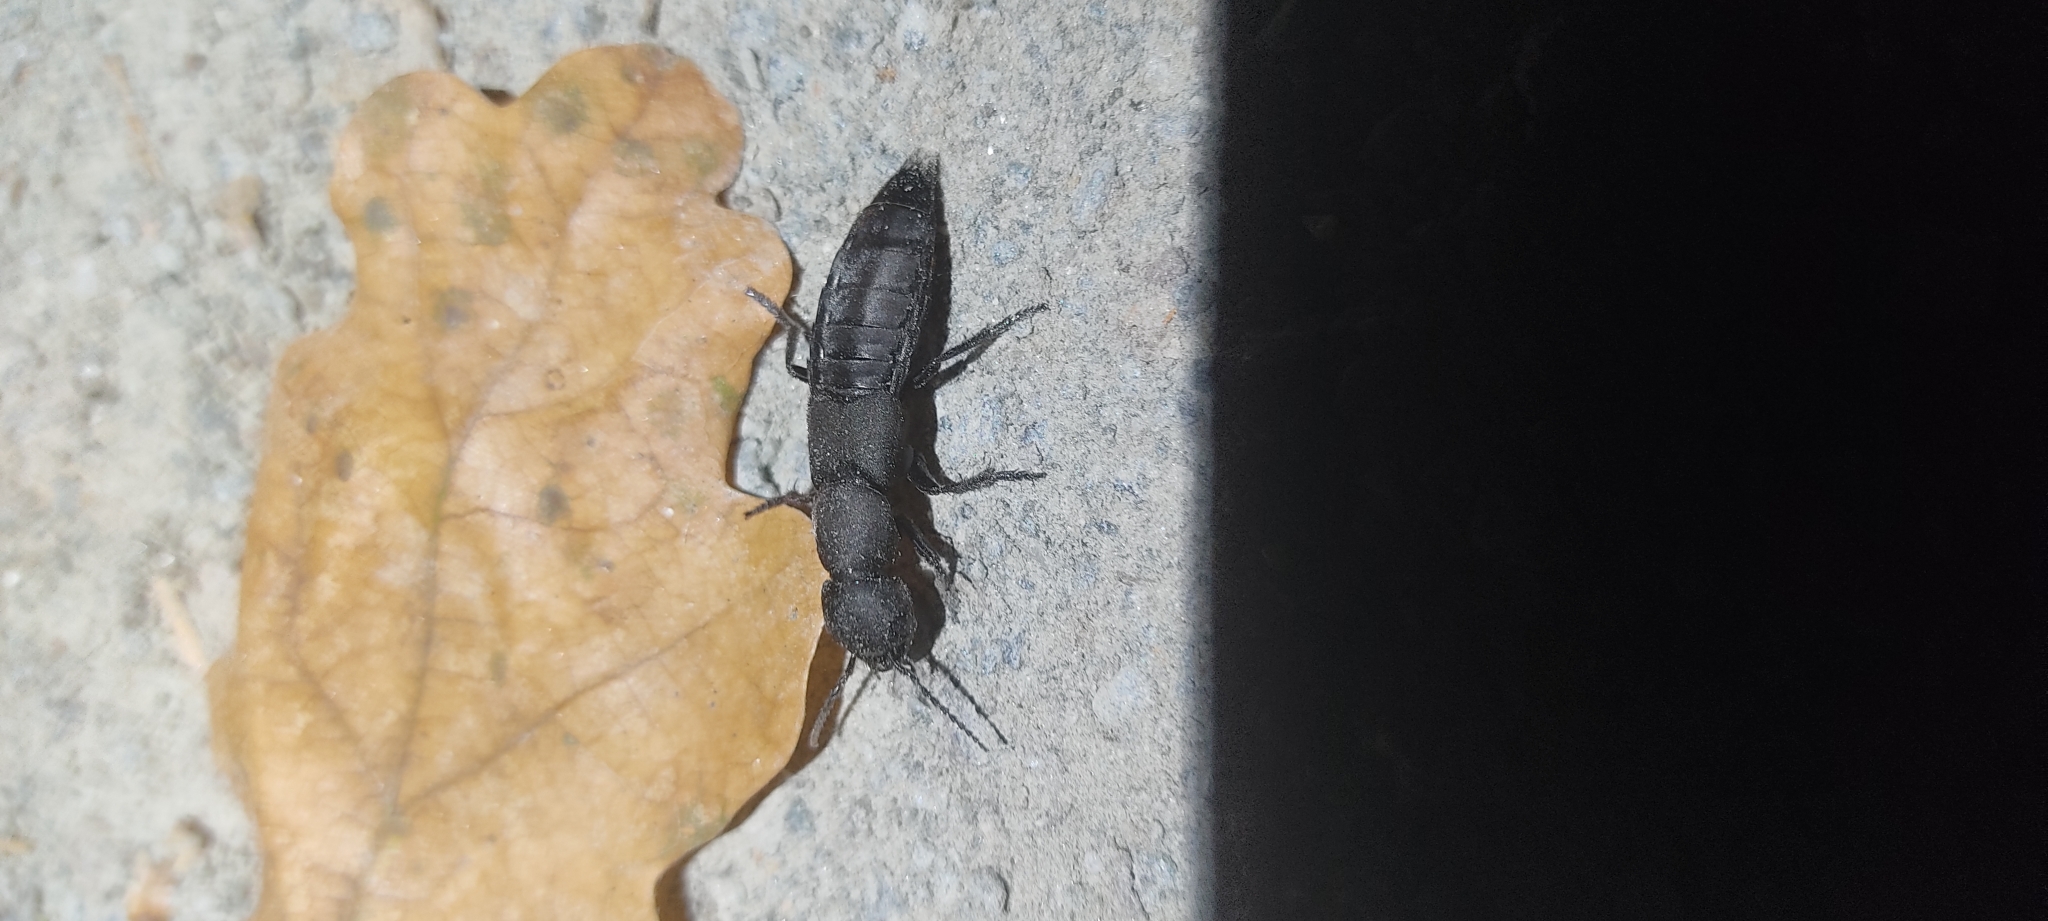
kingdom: Animalia
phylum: Arthropoda
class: Insecta
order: Coleoptera
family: Staphylinidae
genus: Ocypus
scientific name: Ocypus olens
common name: Devil's coach-horse
